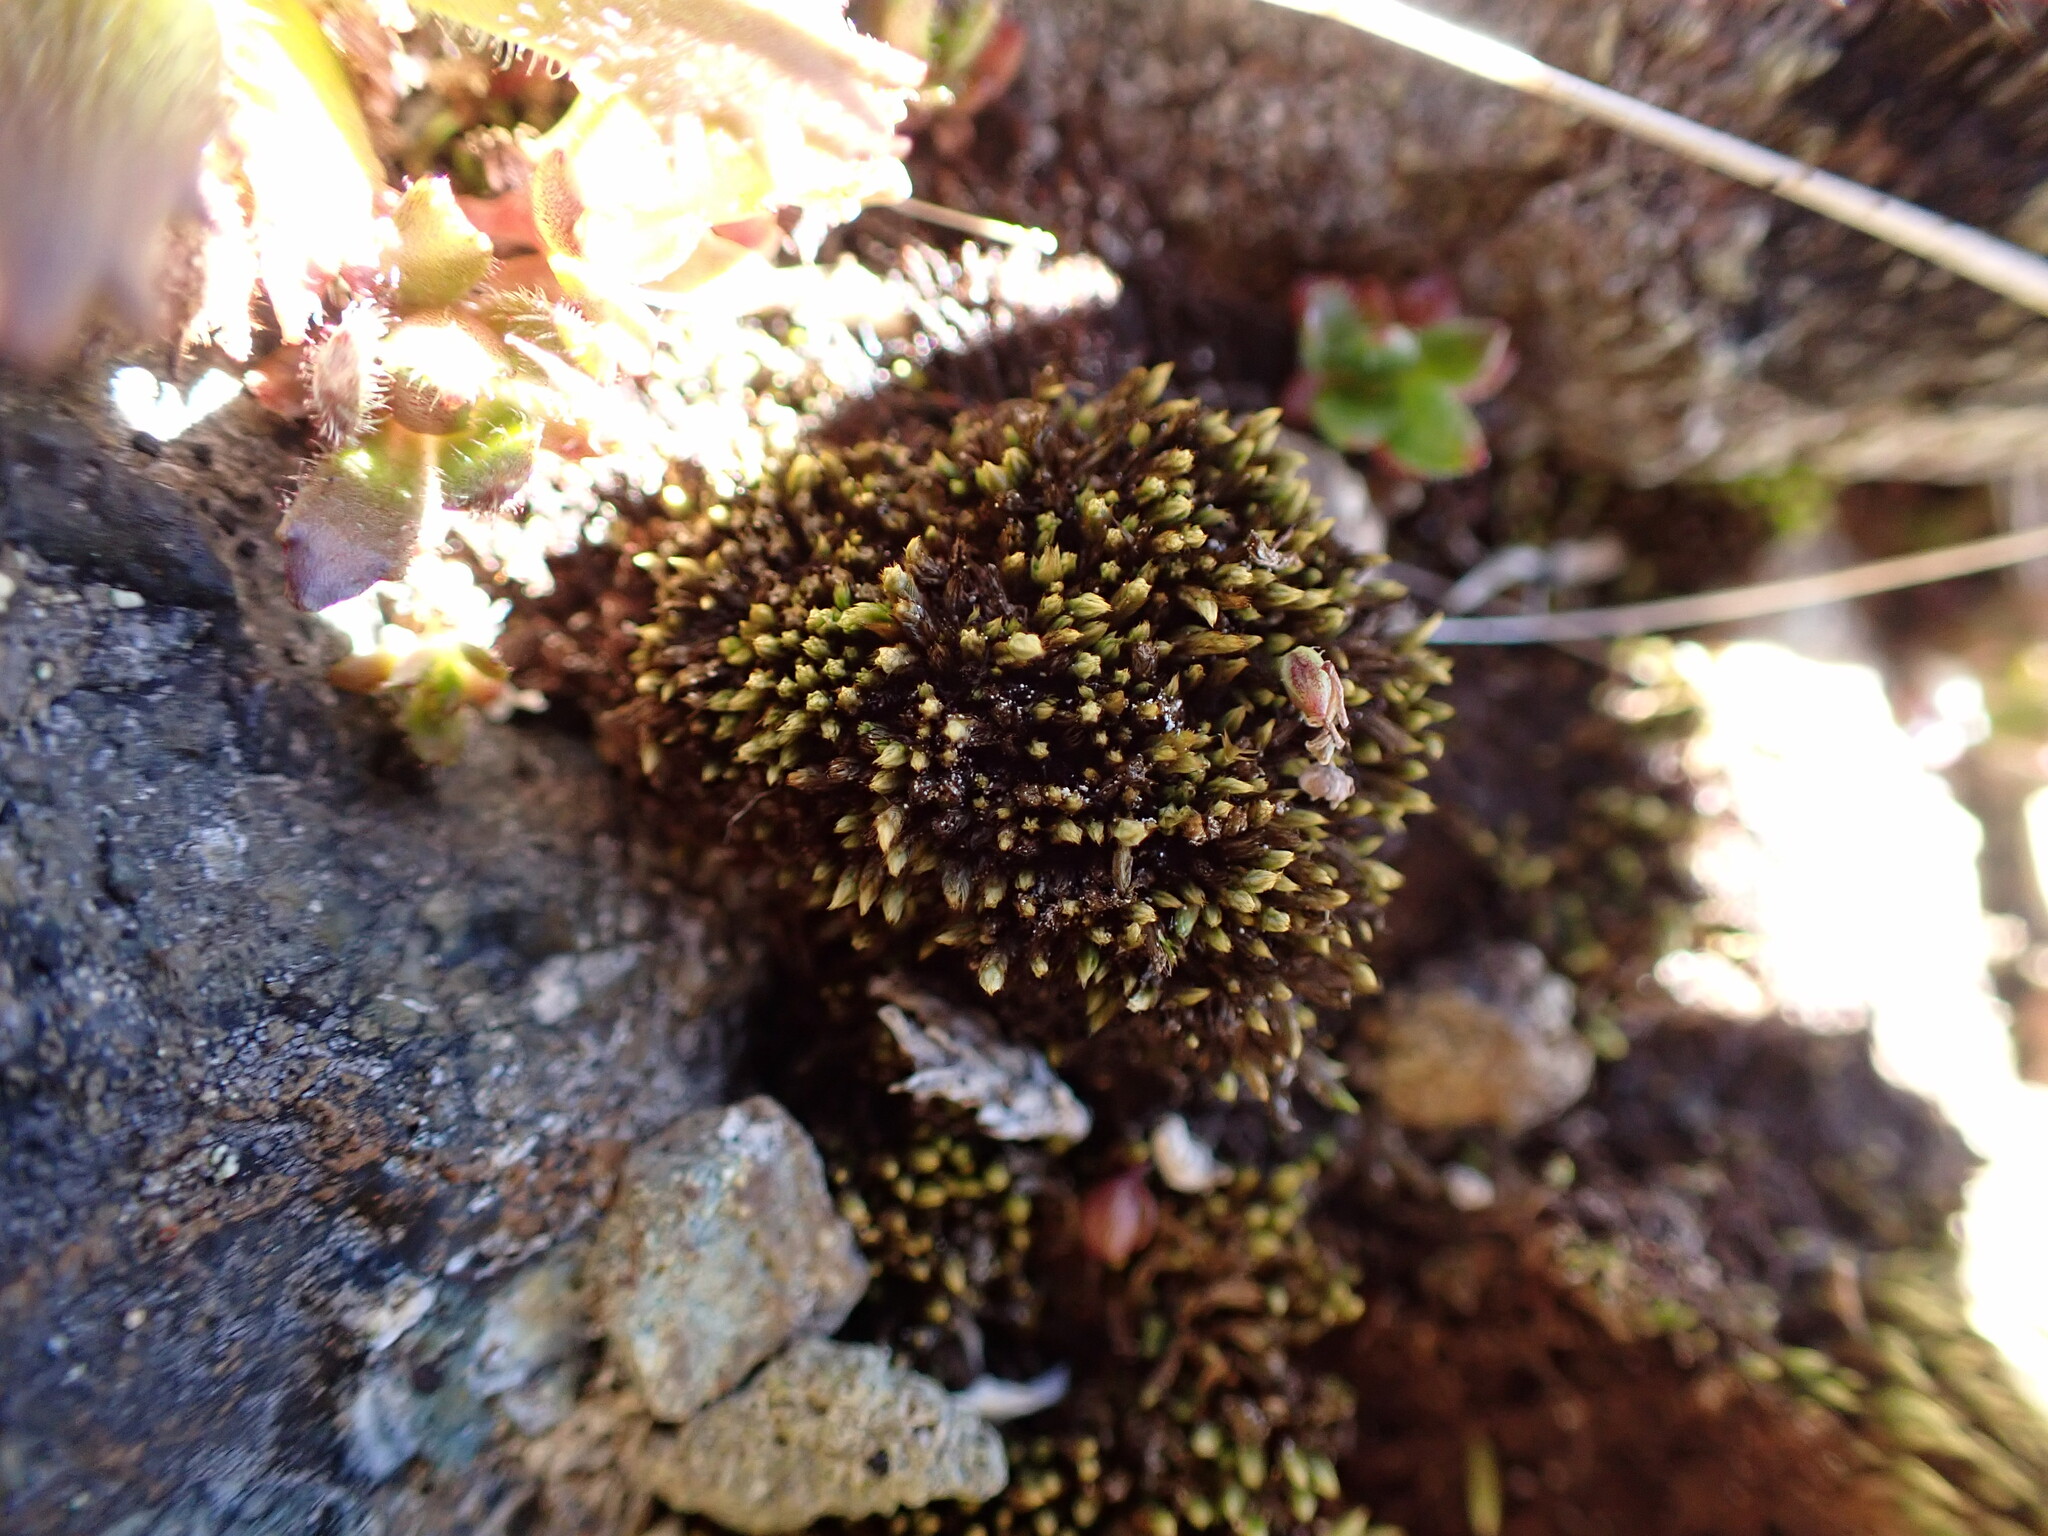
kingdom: Plantae
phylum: Bryophyta
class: Bryopsida
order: Bartramiales
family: Bartramiaceae
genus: Conostomum
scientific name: Conostomum tetragonum
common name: Helmet moss
